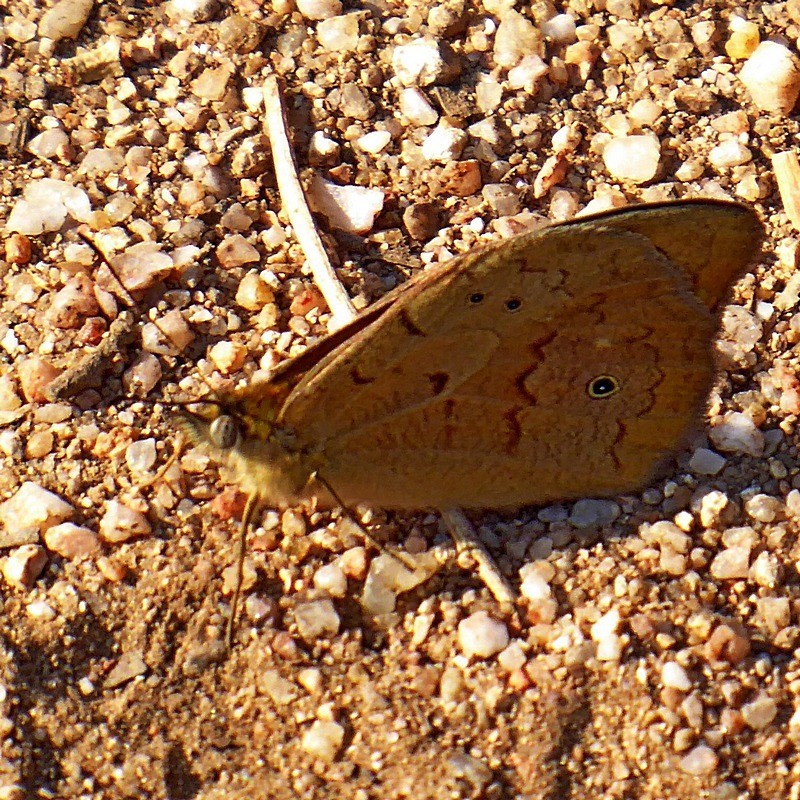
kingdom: Animalia
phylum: Arthropoda
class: Insecta
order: Lepidoptera
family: Nymphalidae
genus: Heteronympha
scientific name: Heteronympha merope
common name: Common brown
